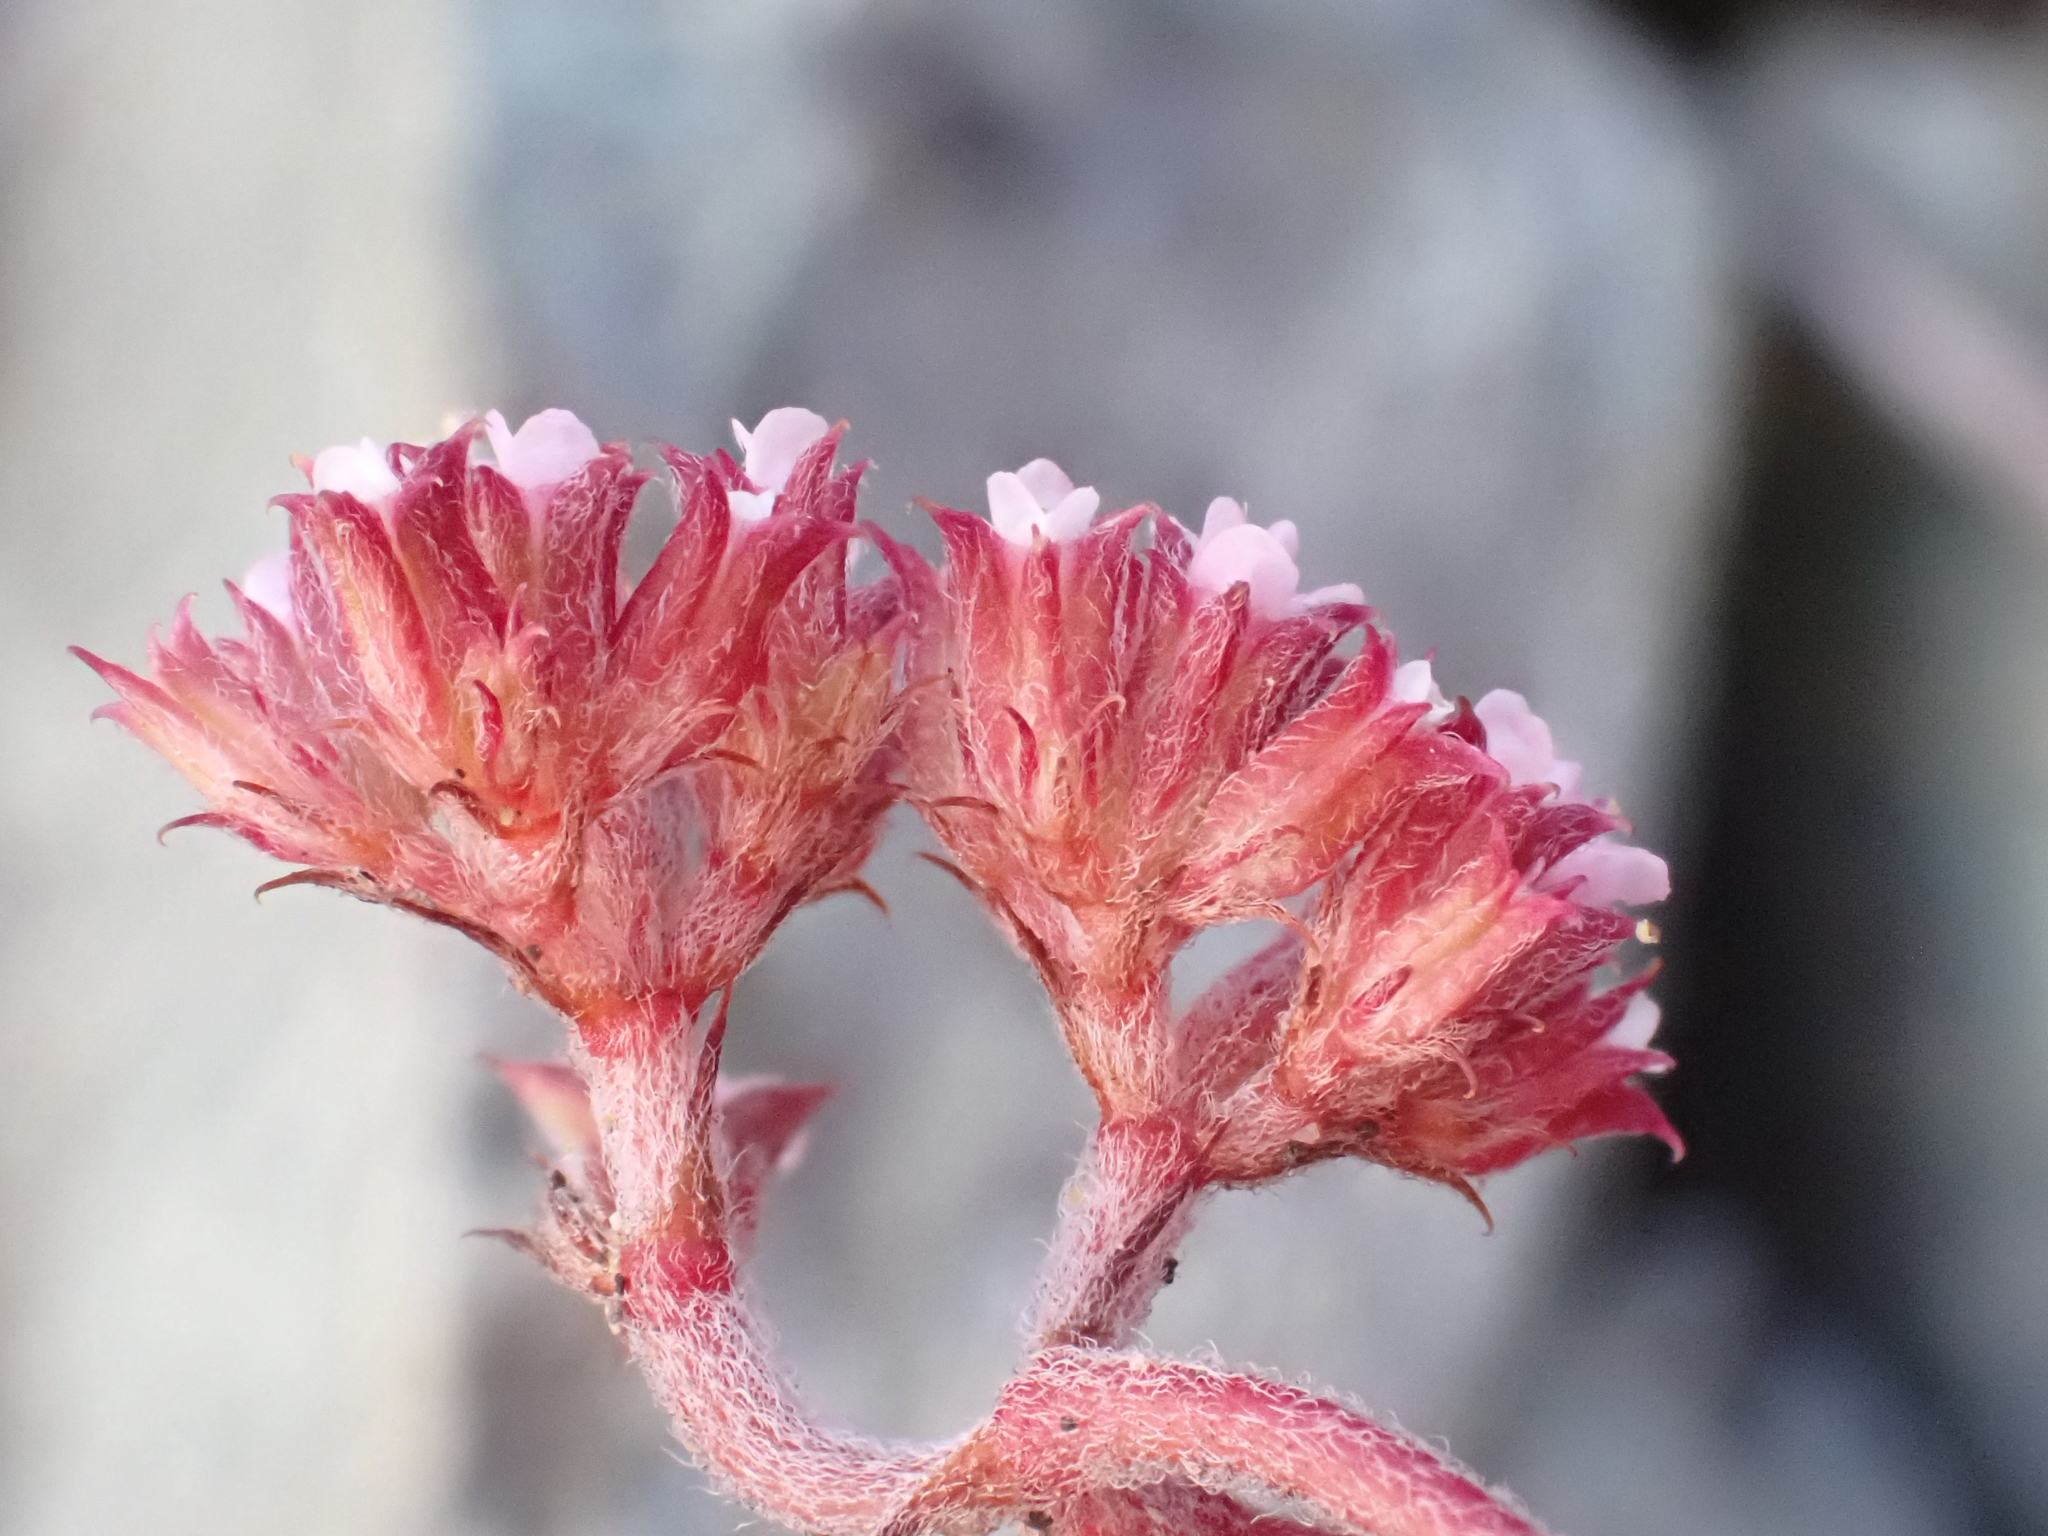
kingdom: Plantae
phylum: Tracheophyta
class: Magnoliopsida
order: Caryophyllales
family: Polygonaceae
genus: Chorizanthe
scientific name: Chorizanthe breweri
